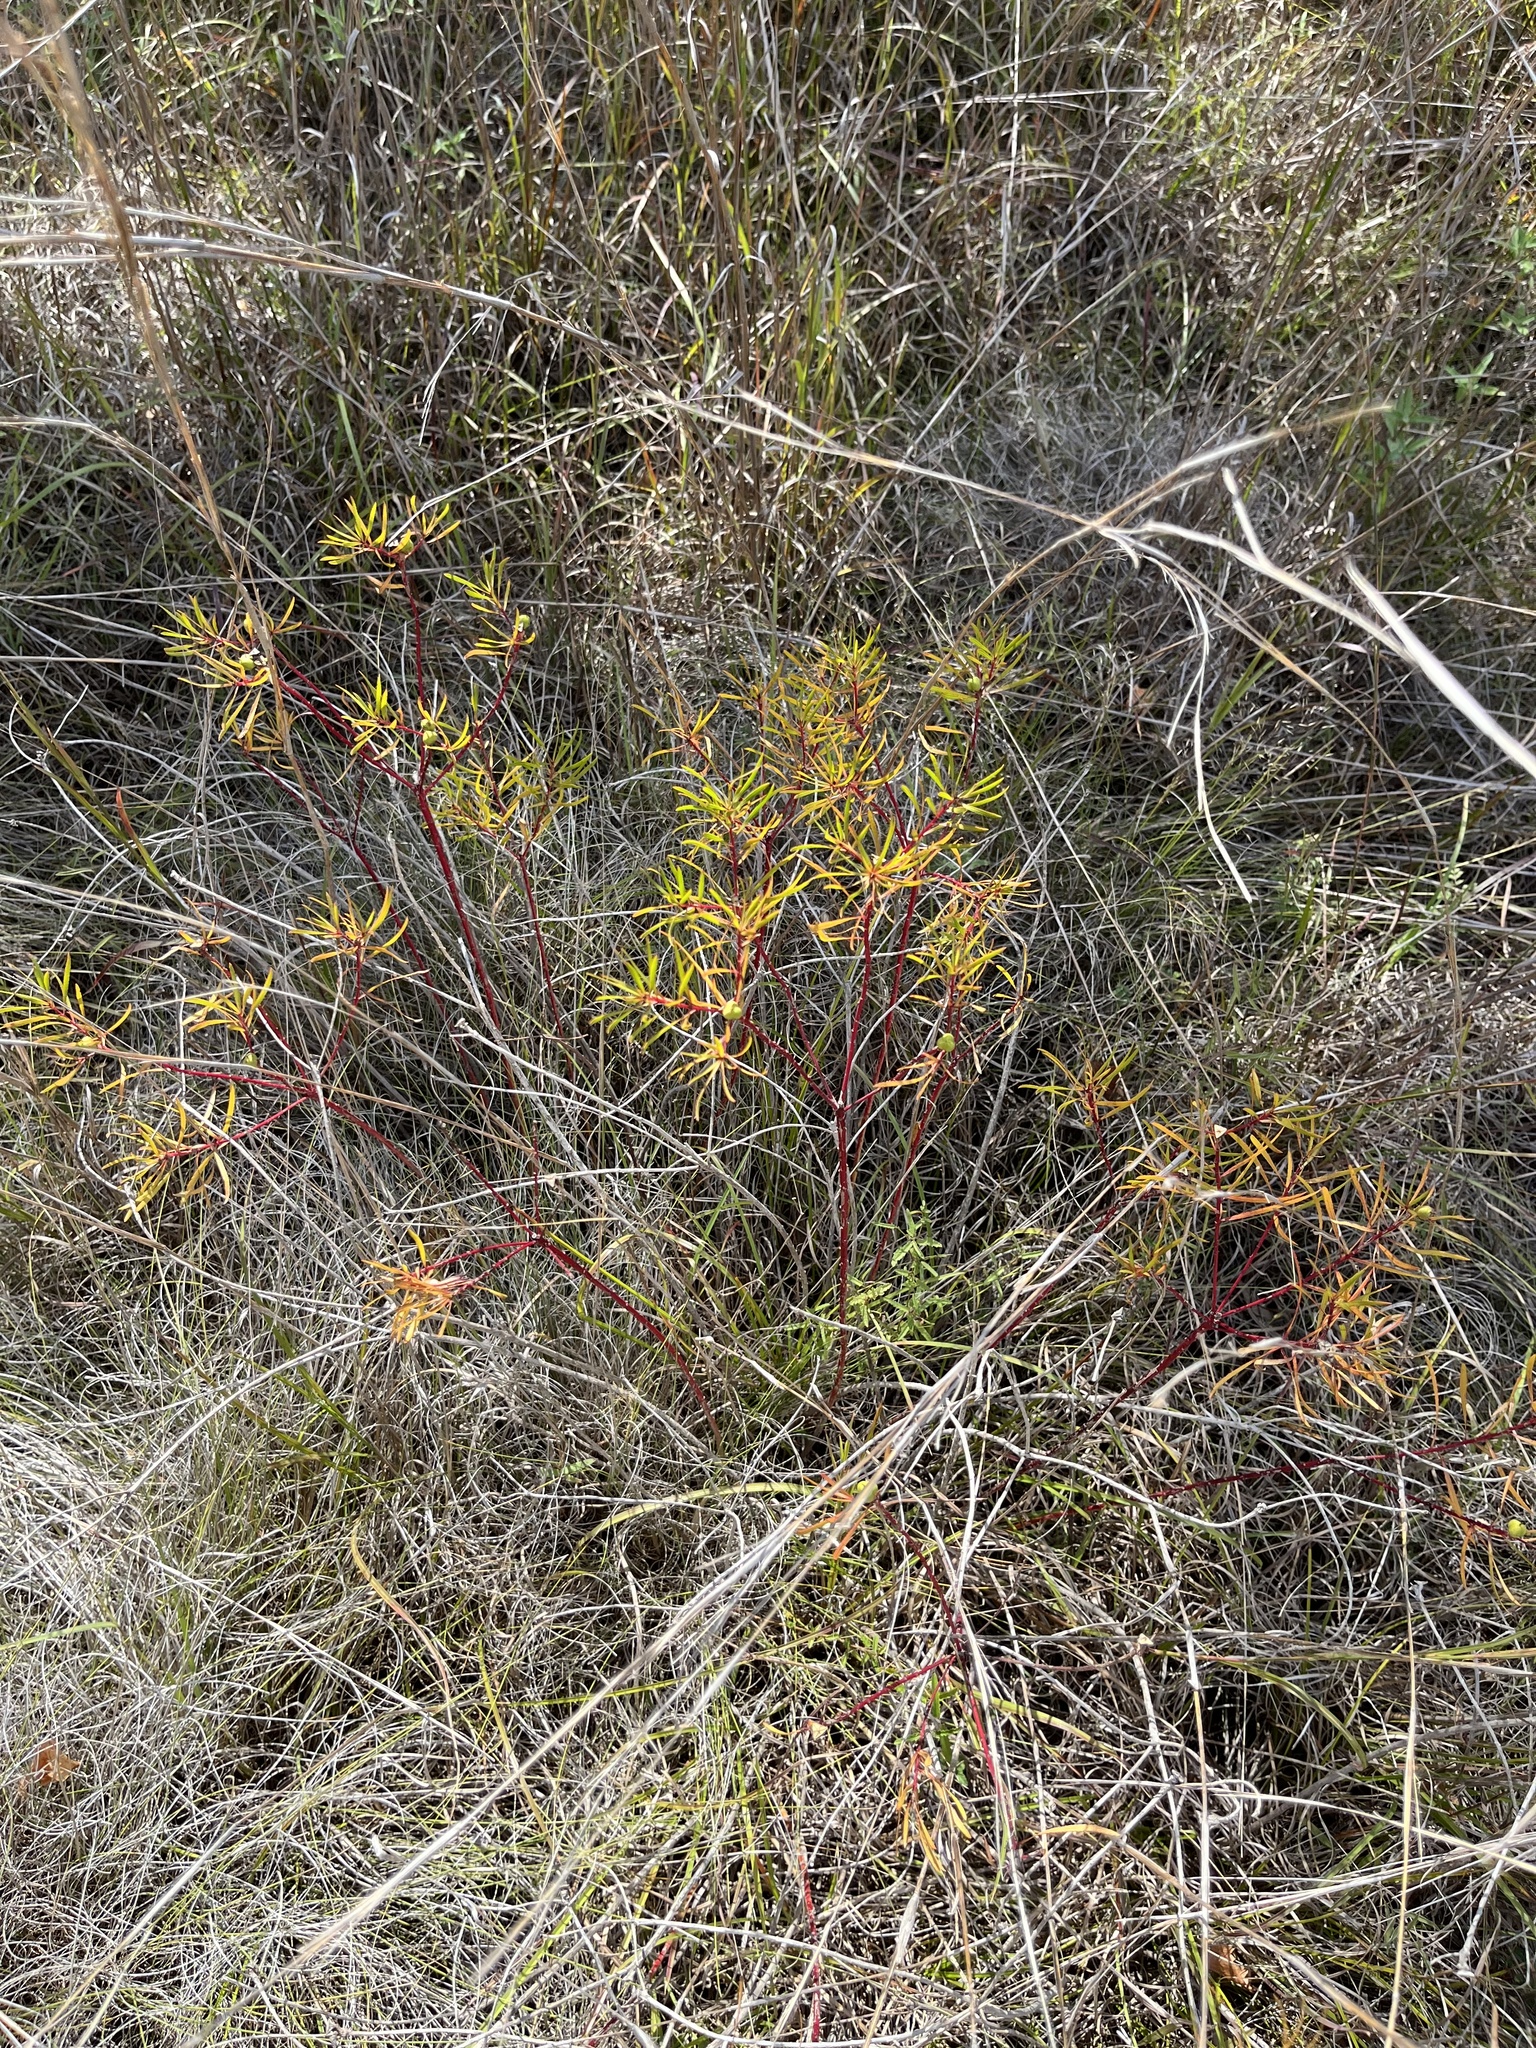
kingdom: Plantae
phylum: Tracheophyta
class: Magnoliopsida
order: Malpighiales
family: Euphorbiaceae
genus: Stillingia
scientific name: Stillingia texana
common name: Texas stillingia
